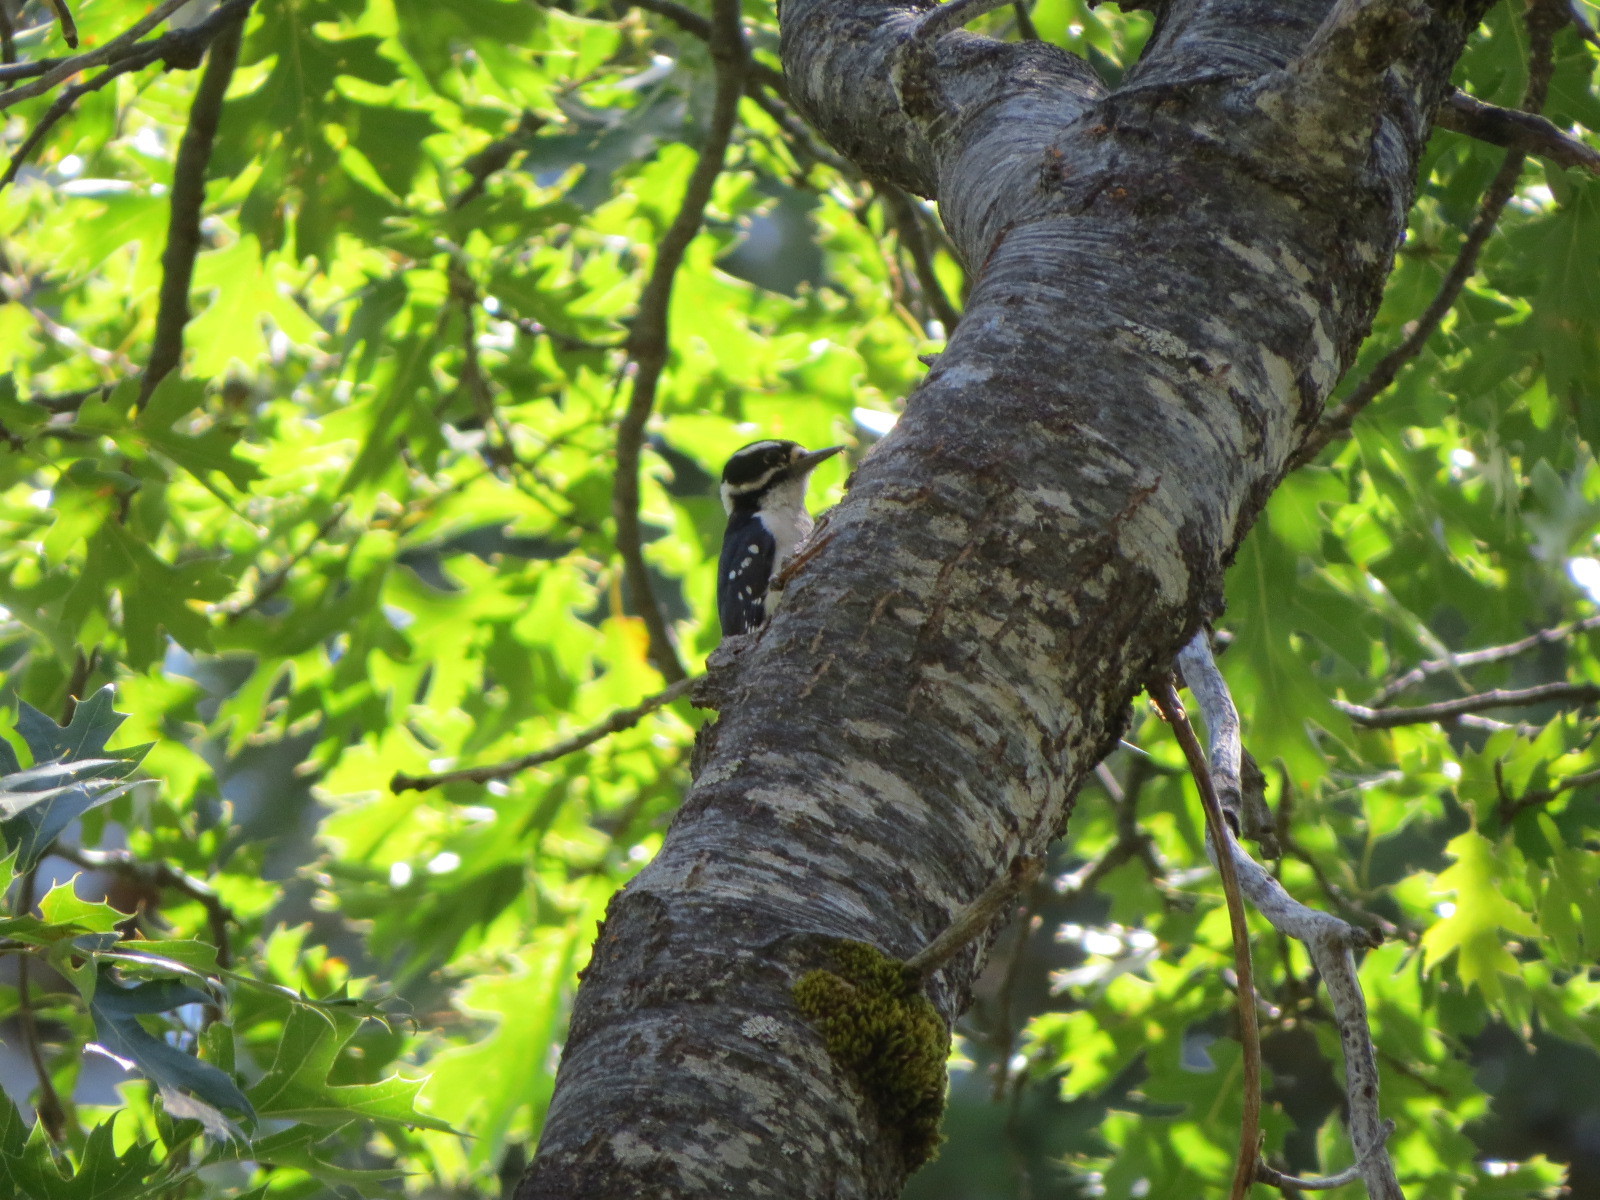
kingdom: Animalia
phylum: Chordata
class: Aves
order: Piciformes
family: Picidae
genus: Dryobates
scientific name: Dryobates pubescens
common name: Downy woodpecker
